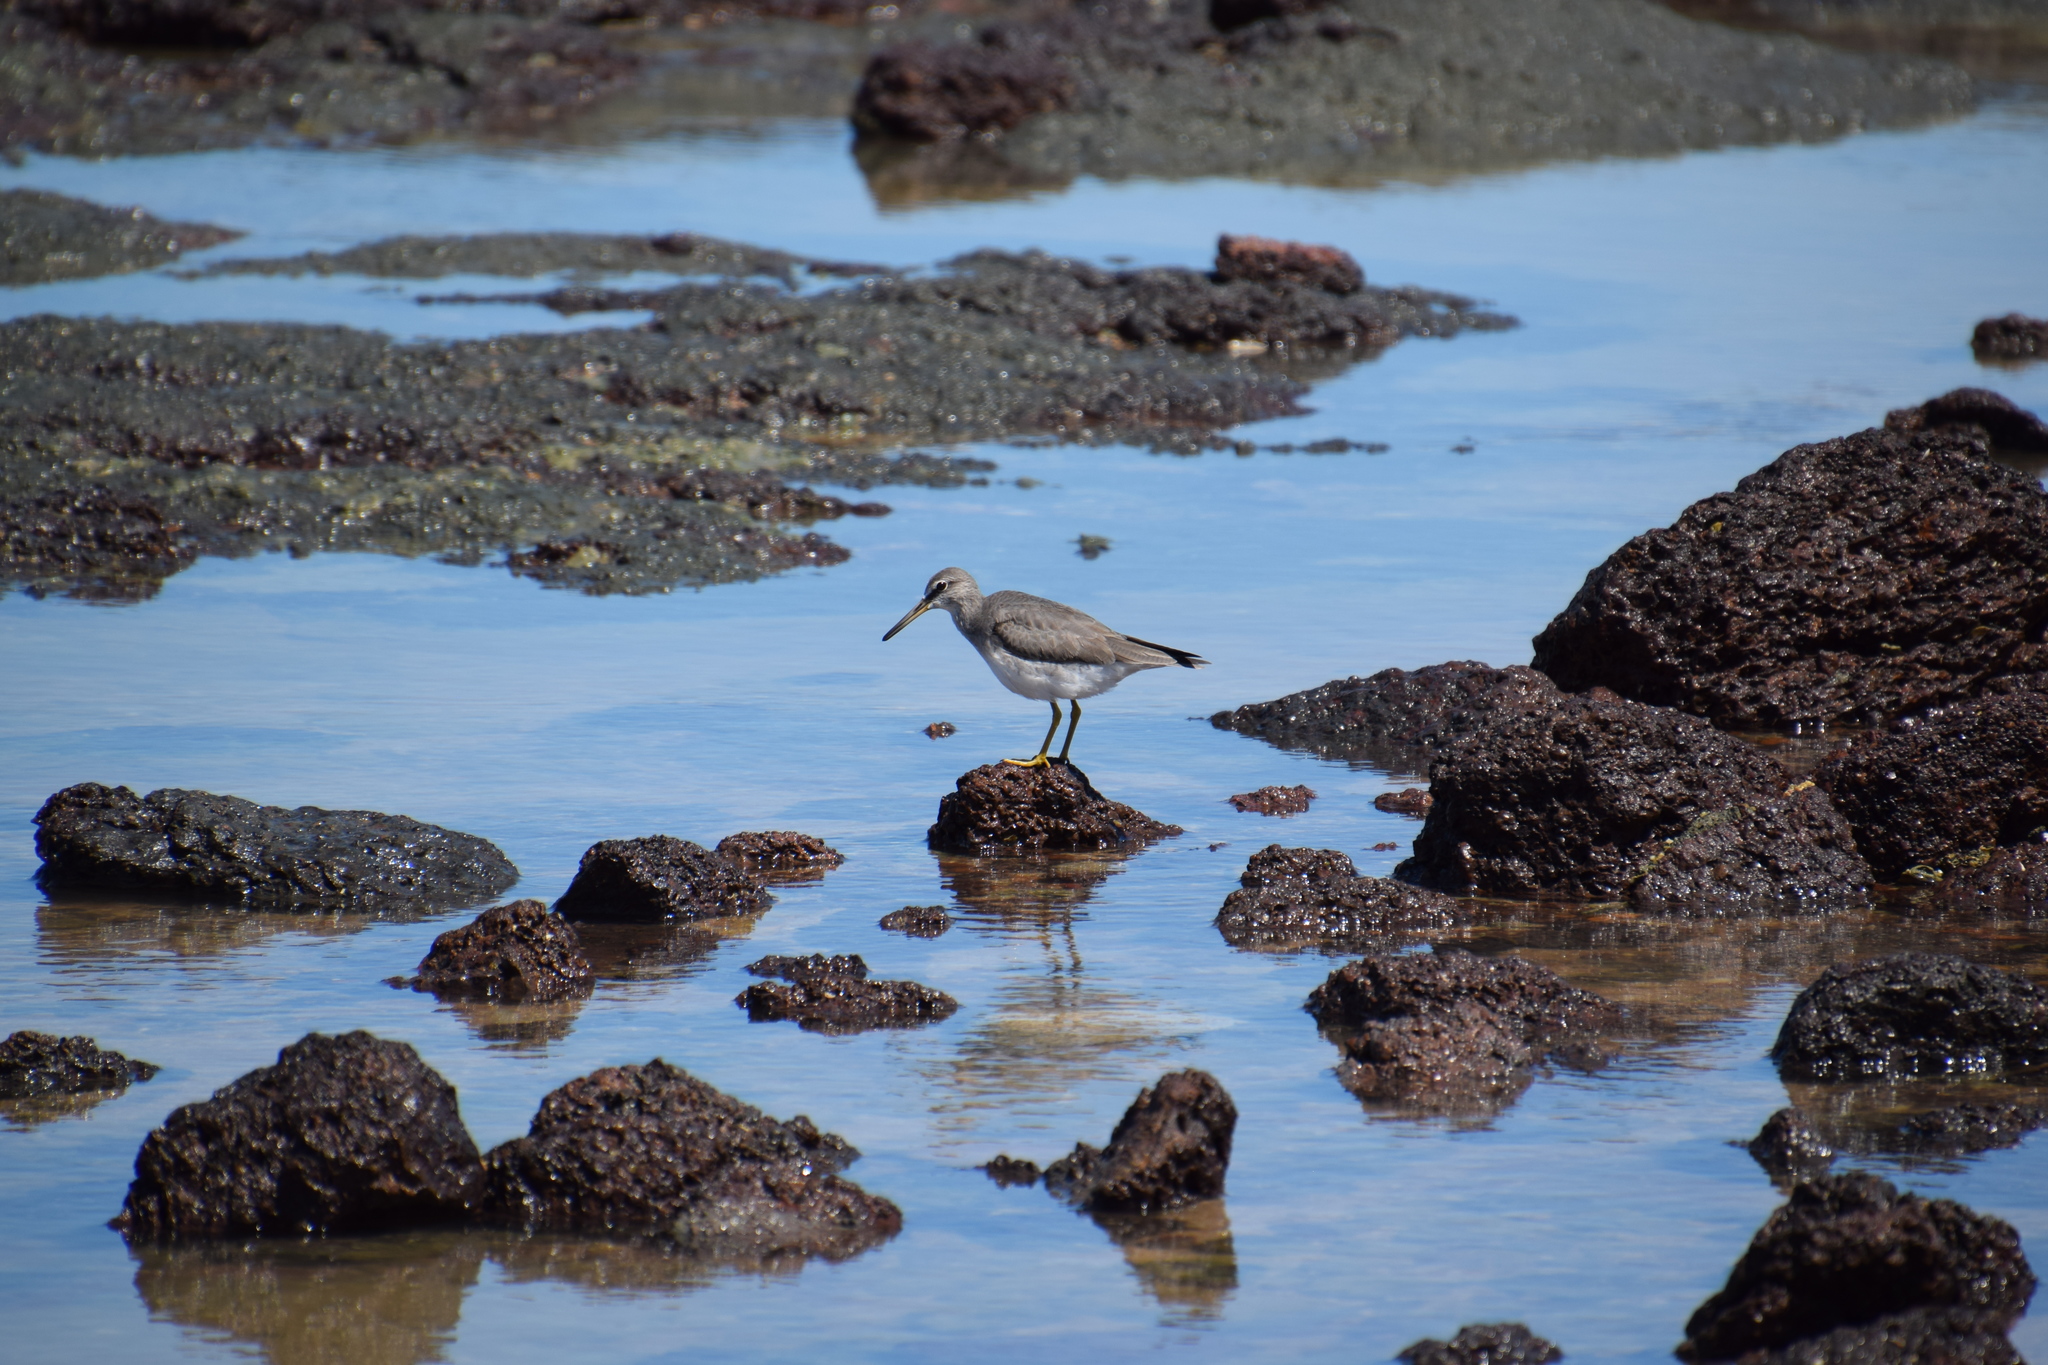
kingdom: Animalia
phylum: Chordata
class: Aves
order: Charadriiformes
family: Scolopacidae
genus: Tringa
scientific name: Tringa brevipes
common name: Grey-tailed tattler
